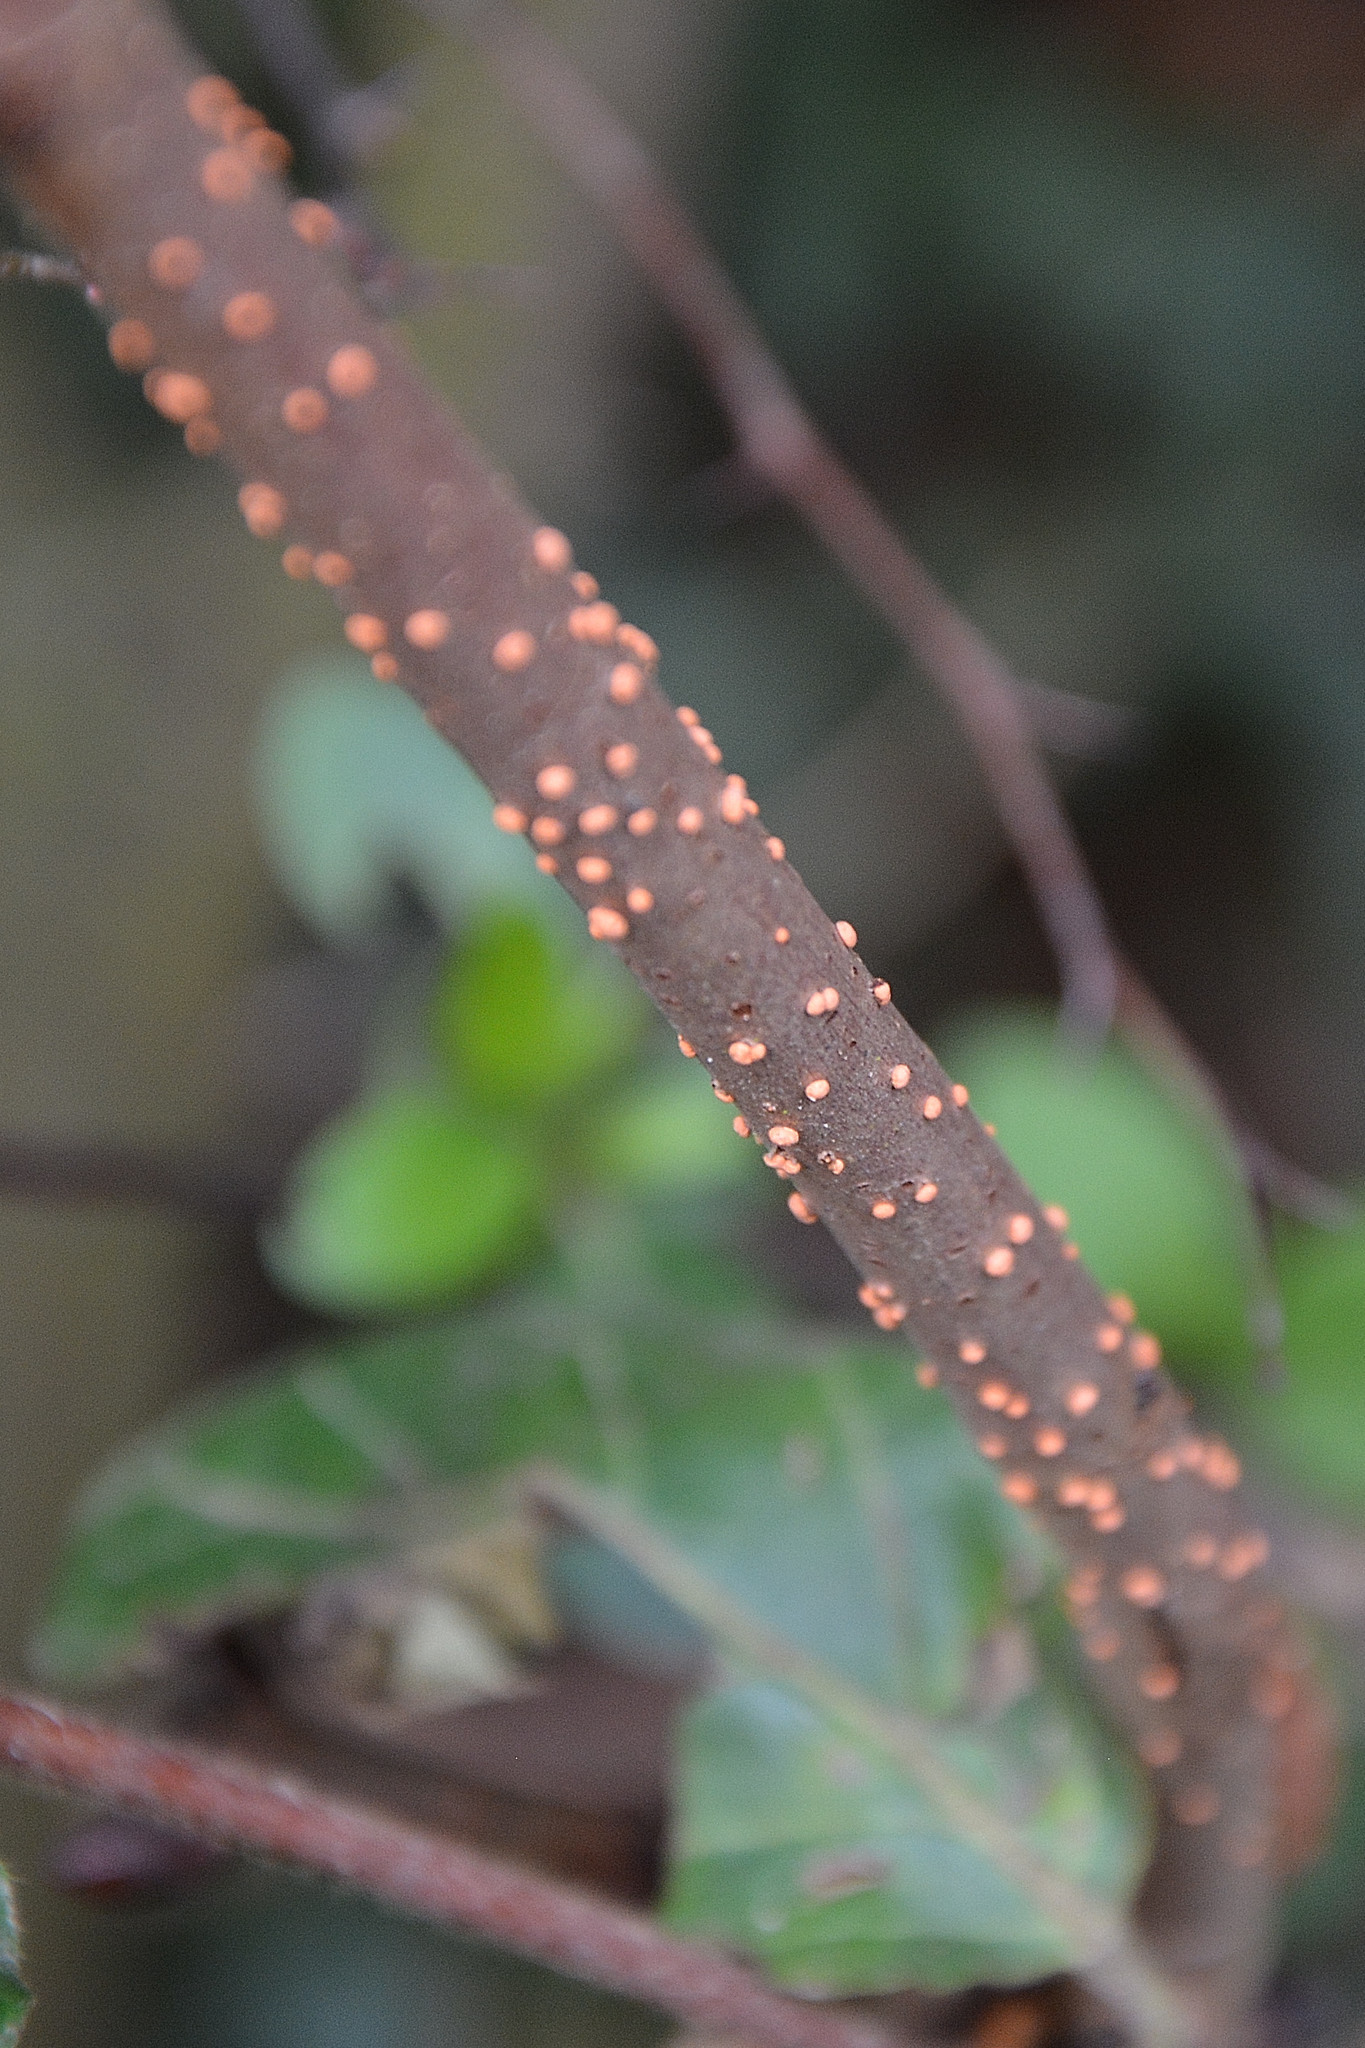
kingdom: Fungi
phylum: Ascomycota
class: Sordariomycetes
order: Hypocreales
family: Nectriaceae
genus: Nectria
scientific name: Nectria cinnabarina
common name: Coral spot
